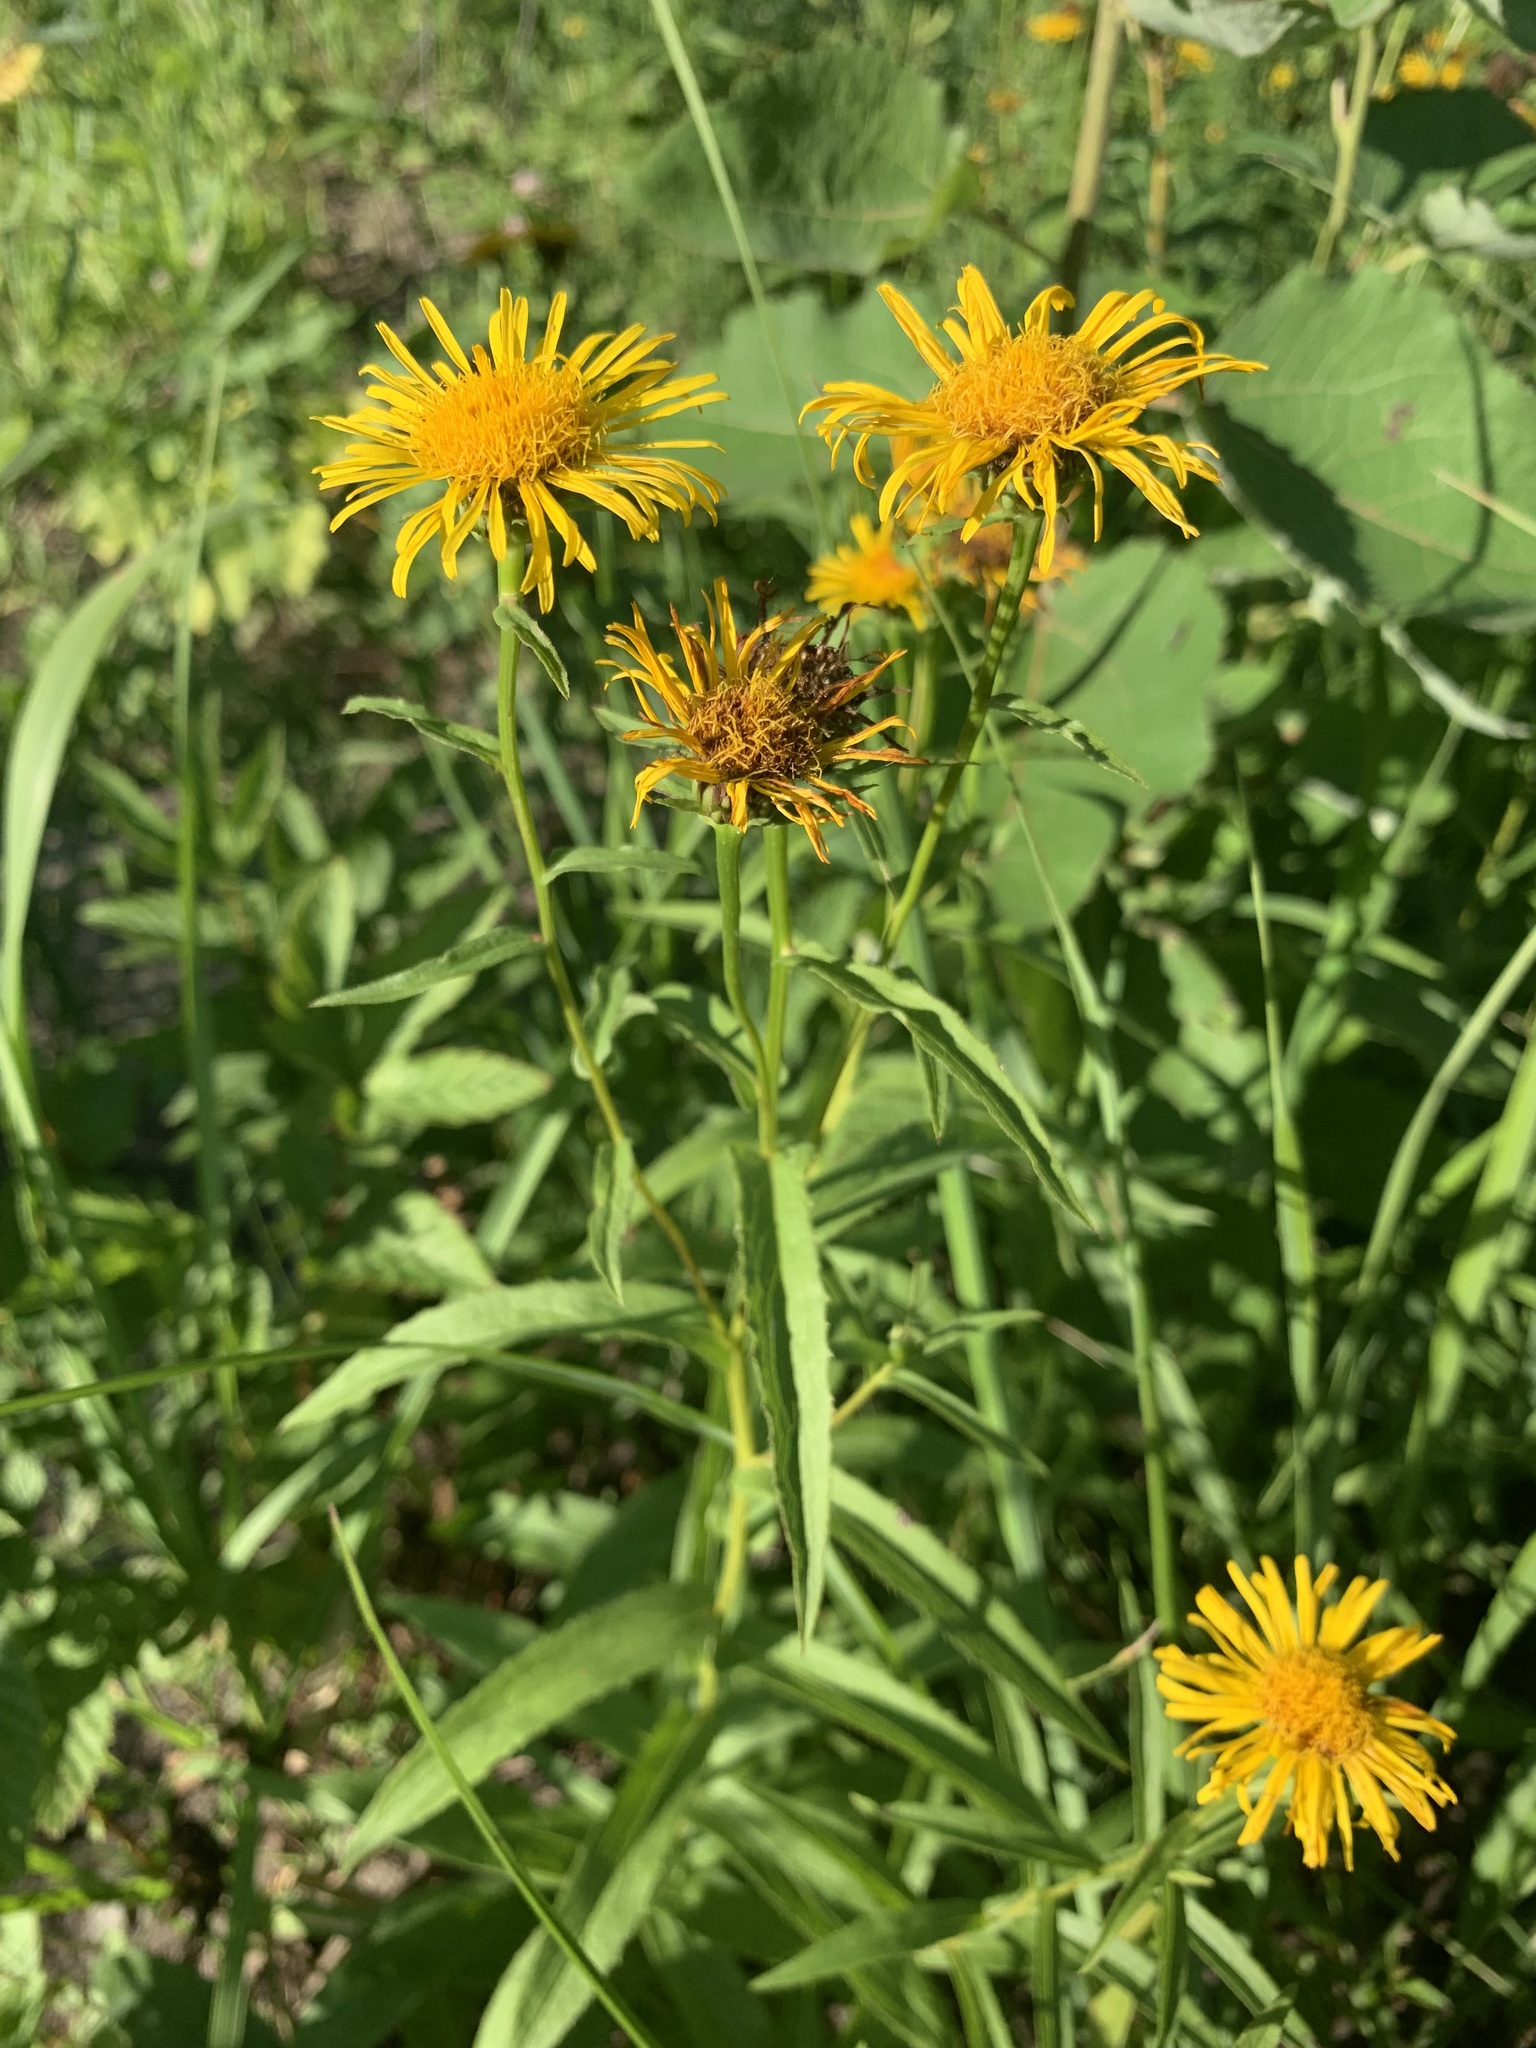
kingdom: Plantae
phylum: Tracheophyta
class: Magnoliopsida
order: Asterales
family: Asteraceae
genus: Pentanema
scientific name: Pentanema salicinum
